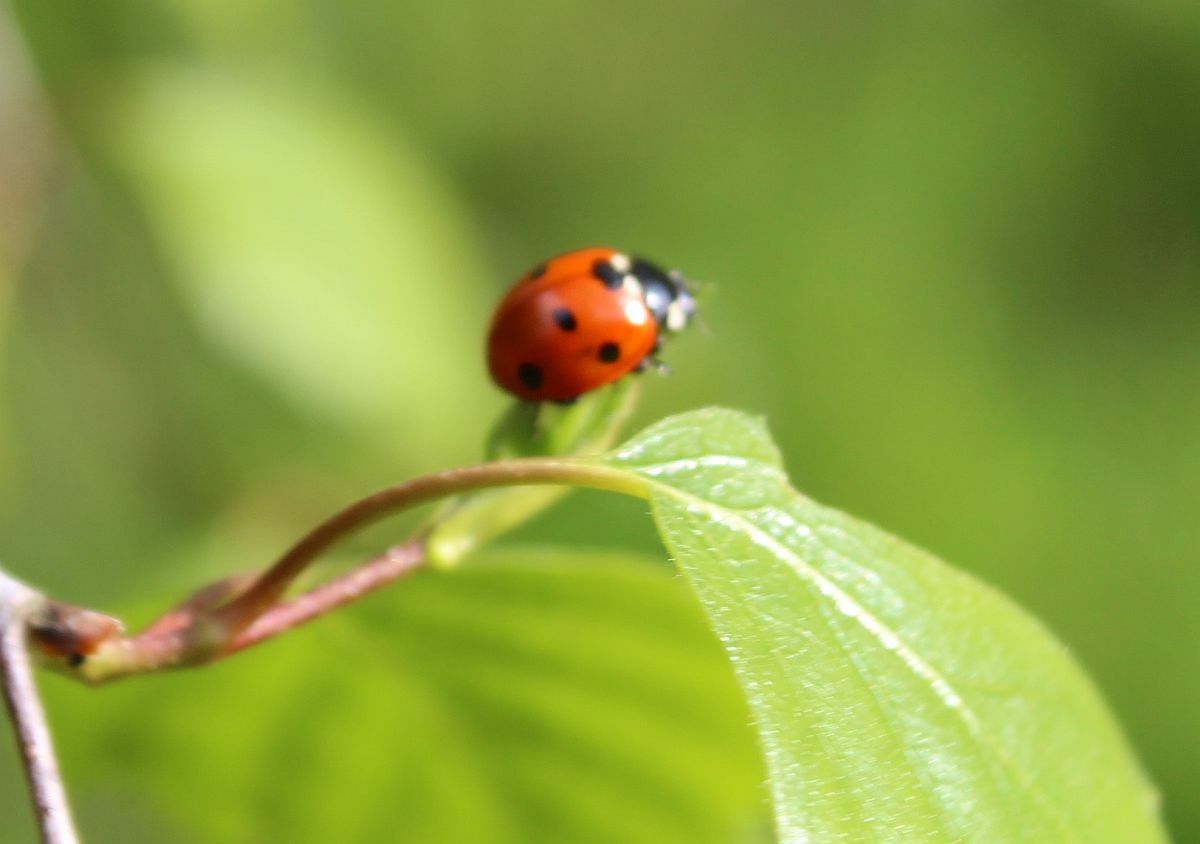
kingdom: Animalia
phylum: Arthropoda
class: Insecta
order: Coleoptera
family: Coccinellidae
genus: Coccinella
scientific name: Coccinella septempunctata
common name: Sevenspotted lady beetle
